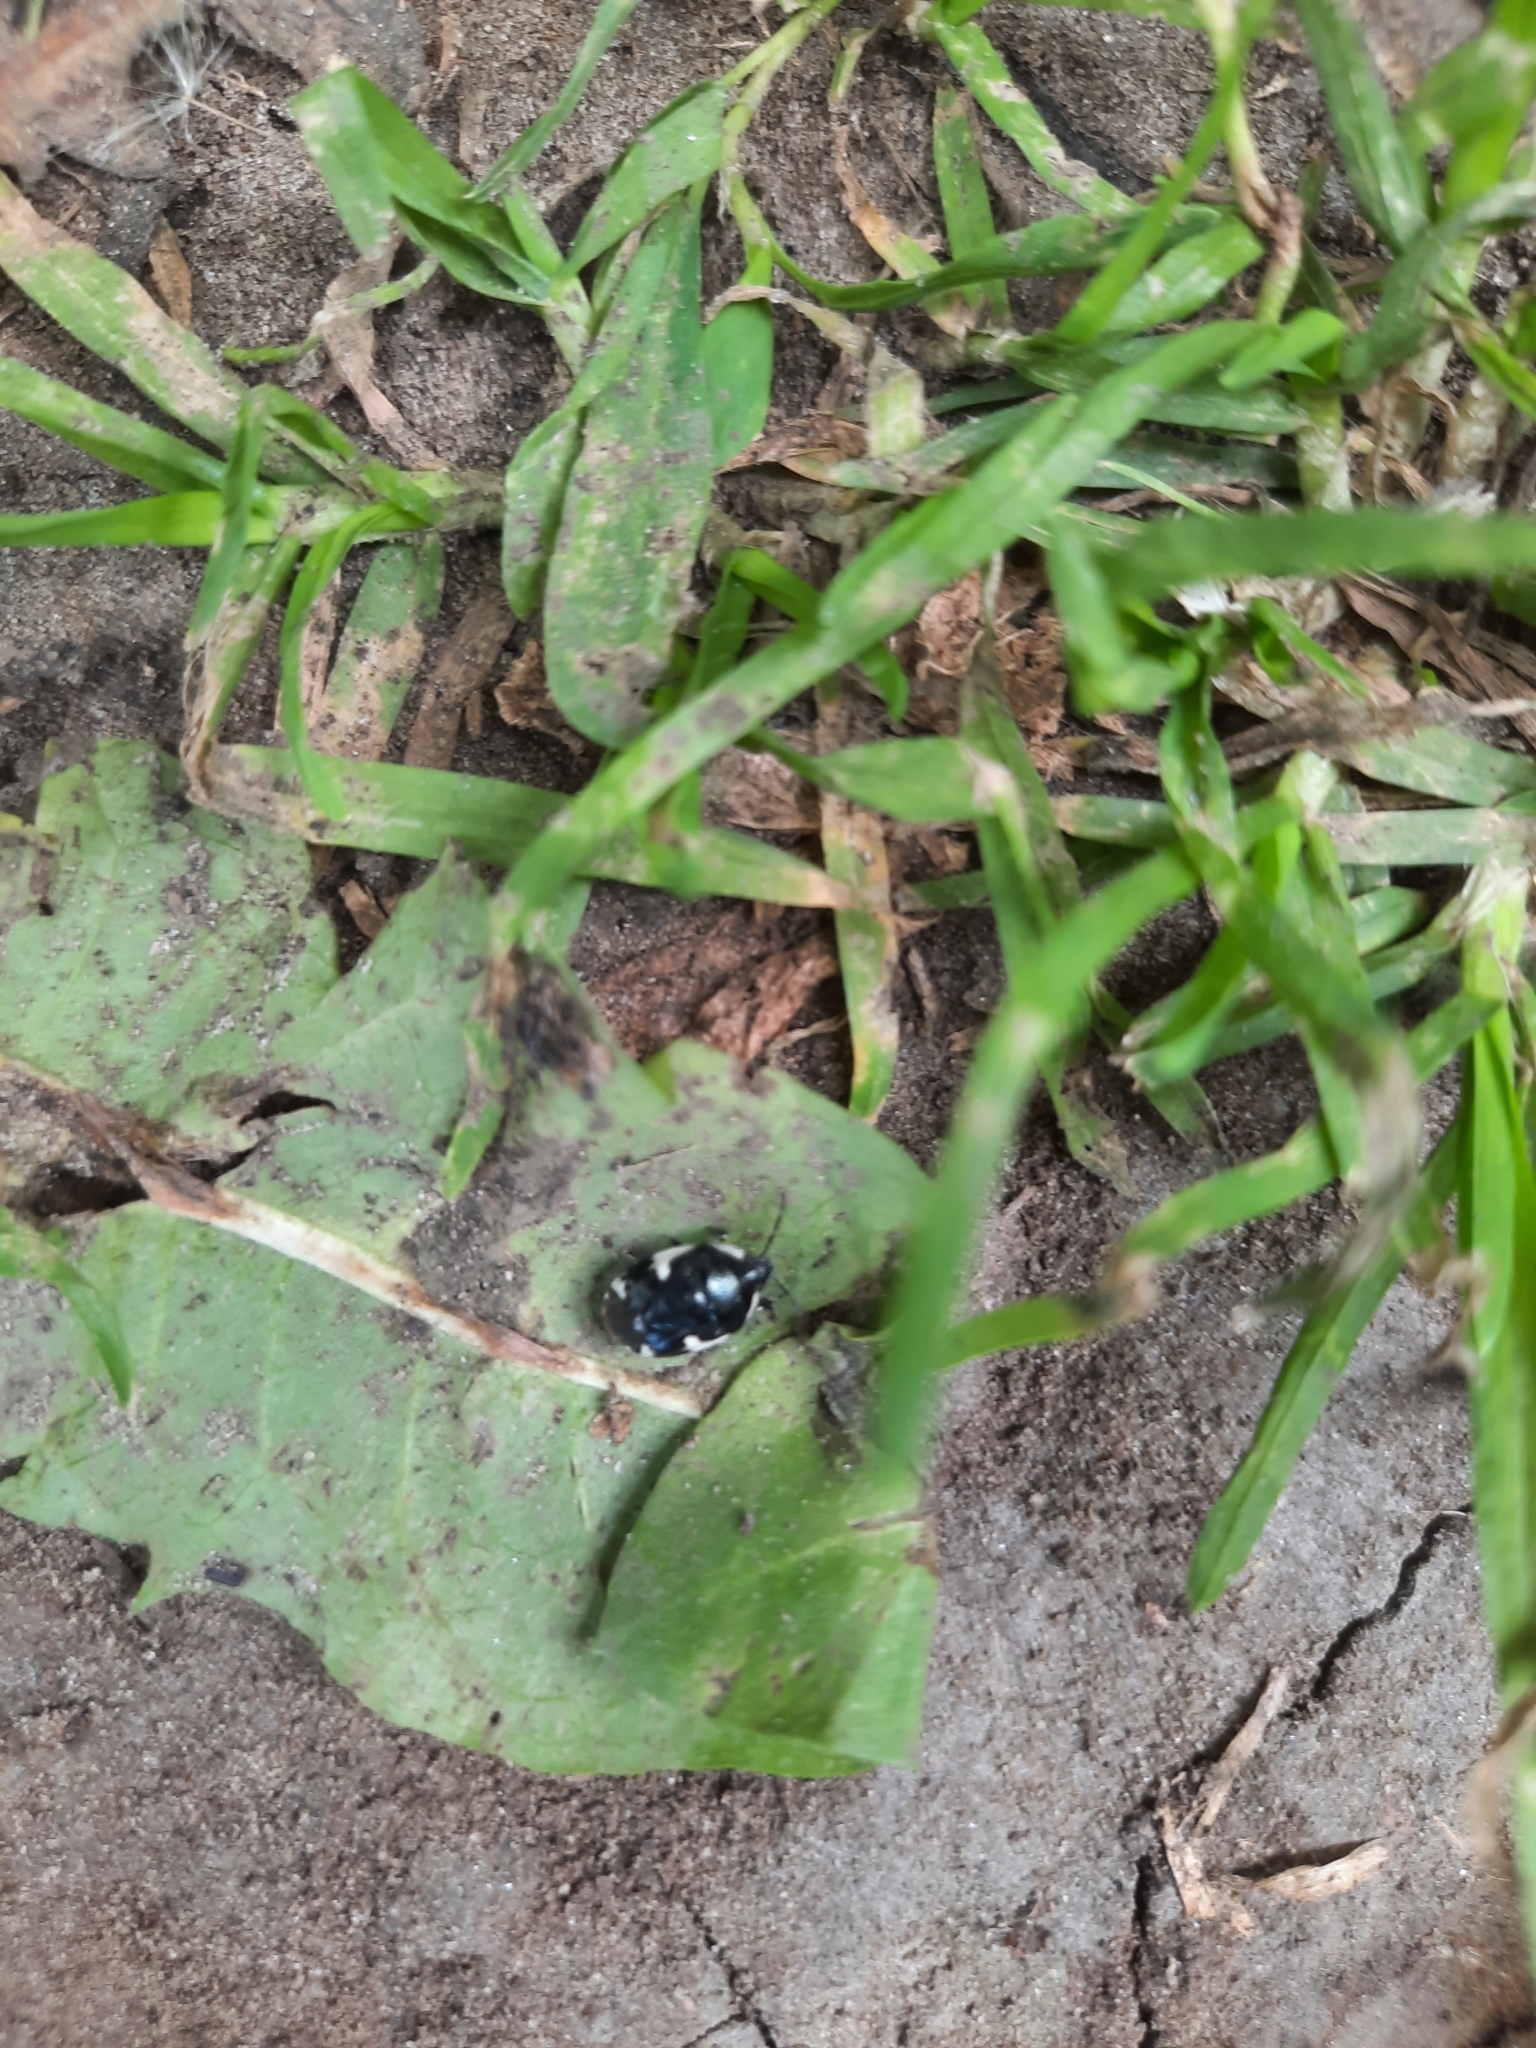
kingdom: Animalia
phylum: Arthropoda
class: Insecta
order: Hemiptera
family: Cydnidae
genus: Tritomegas
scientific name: Tritomegas sexmaculatus
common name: Rambur's pied shieldbug
